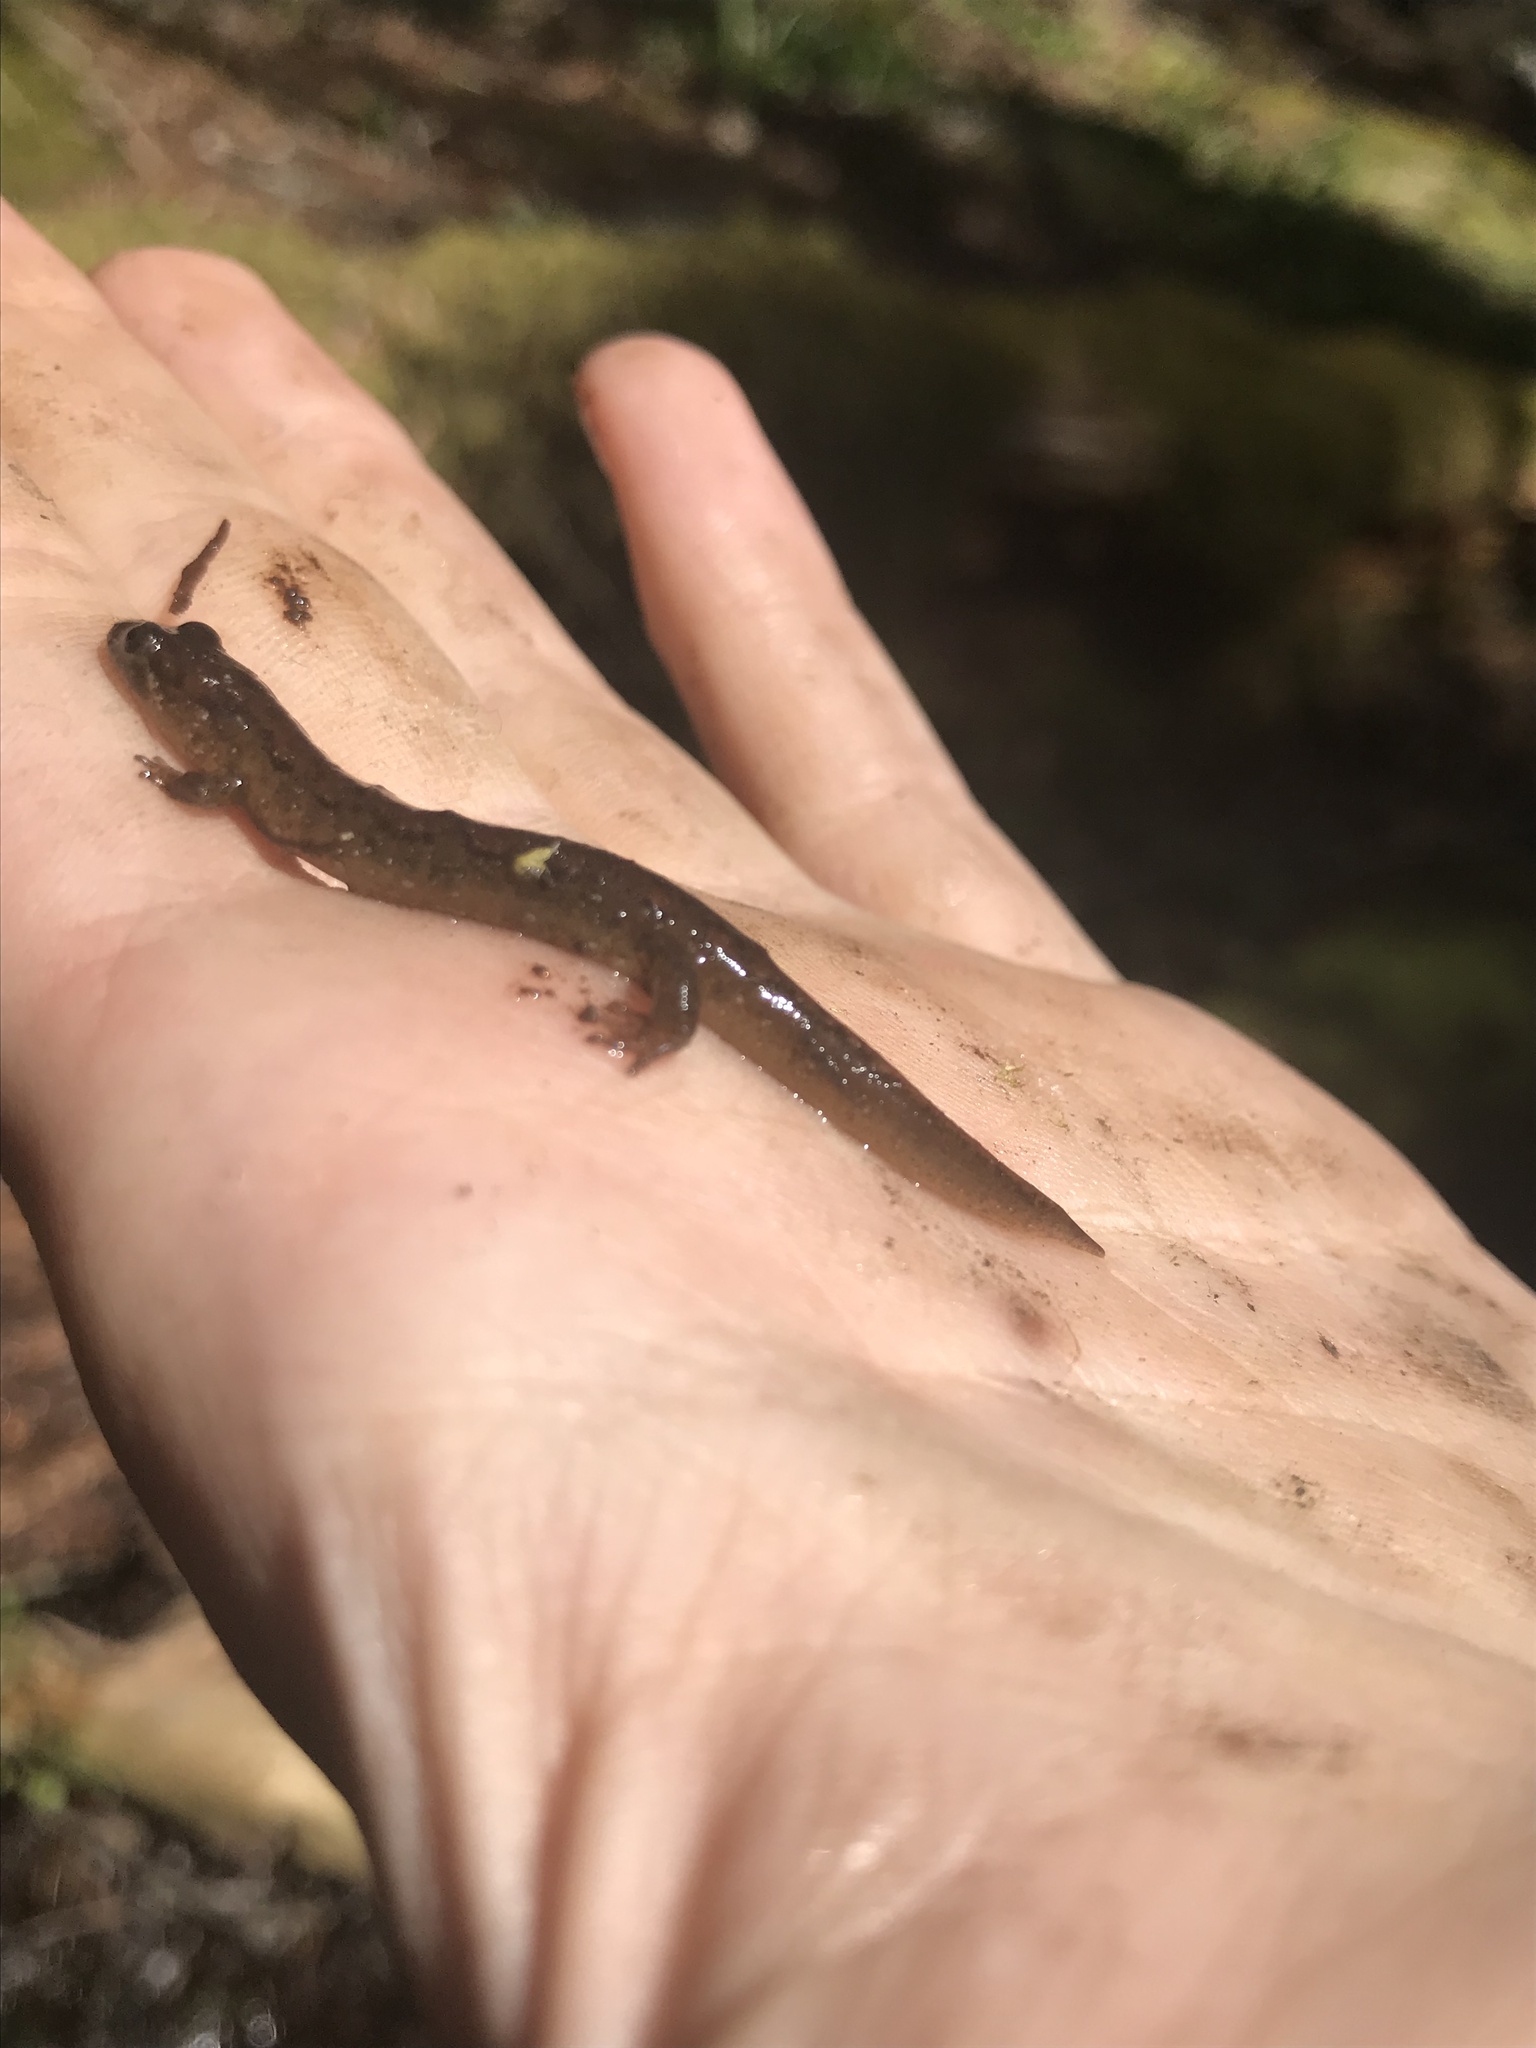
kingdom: Animalia
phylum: Chordata
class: Amphibia
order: Caudata
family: Plethodontidae
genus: Desmognathus
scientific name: Desmognathus santeetlah
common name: Santeetlah dusky salamander
